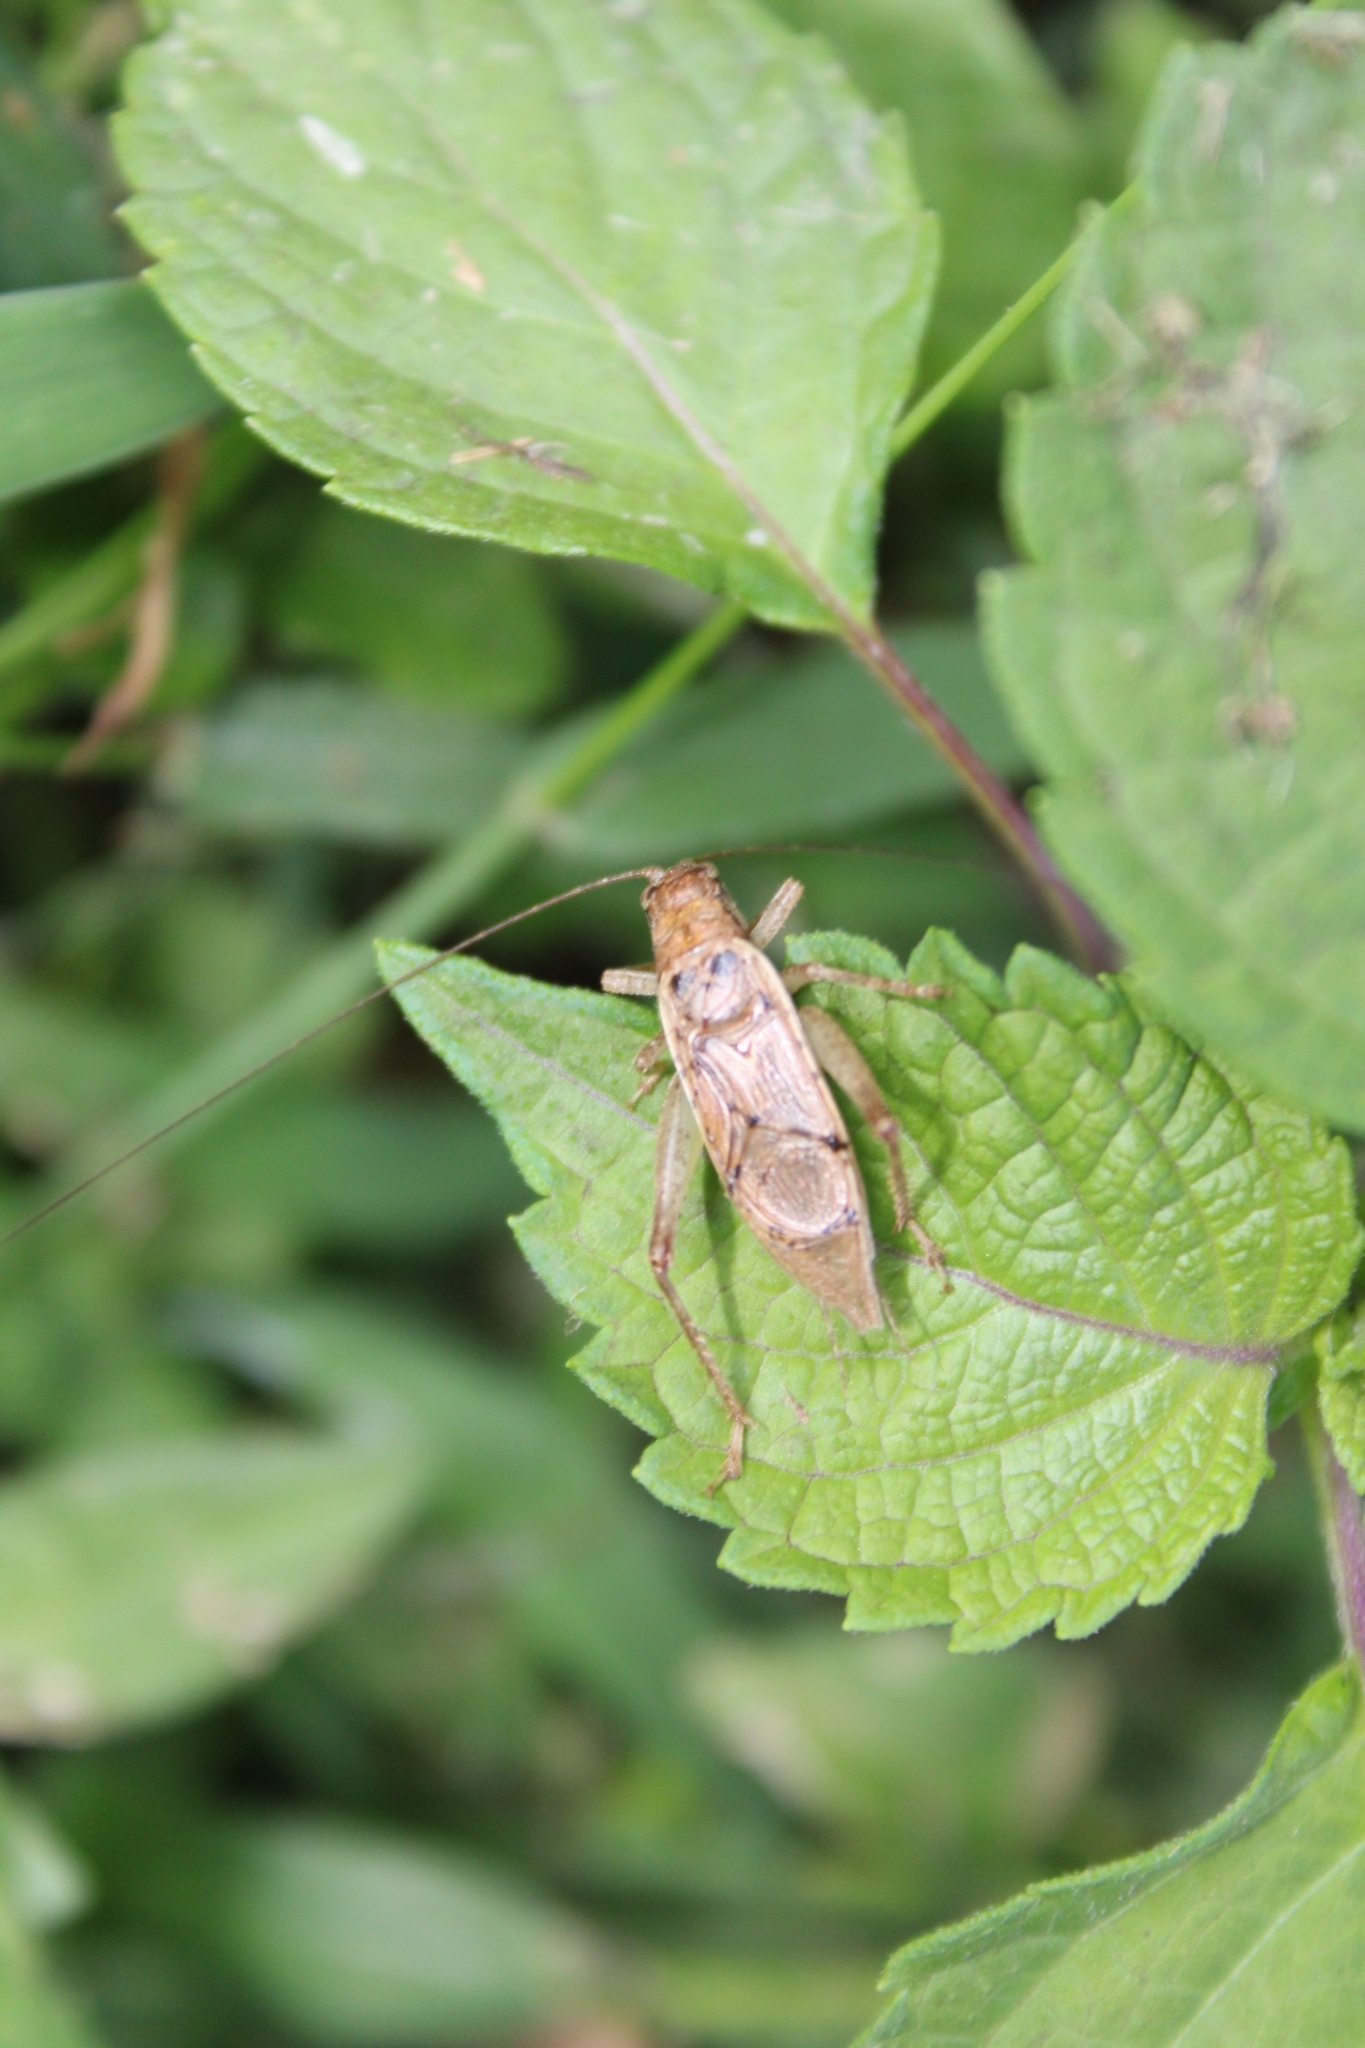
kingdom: Animalia
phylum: Arthropoda
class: Insecta
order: Orthoptera
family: Gryllidae
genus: Hapithus
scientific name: Hapithus saltator
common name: Jumping bush cricket
